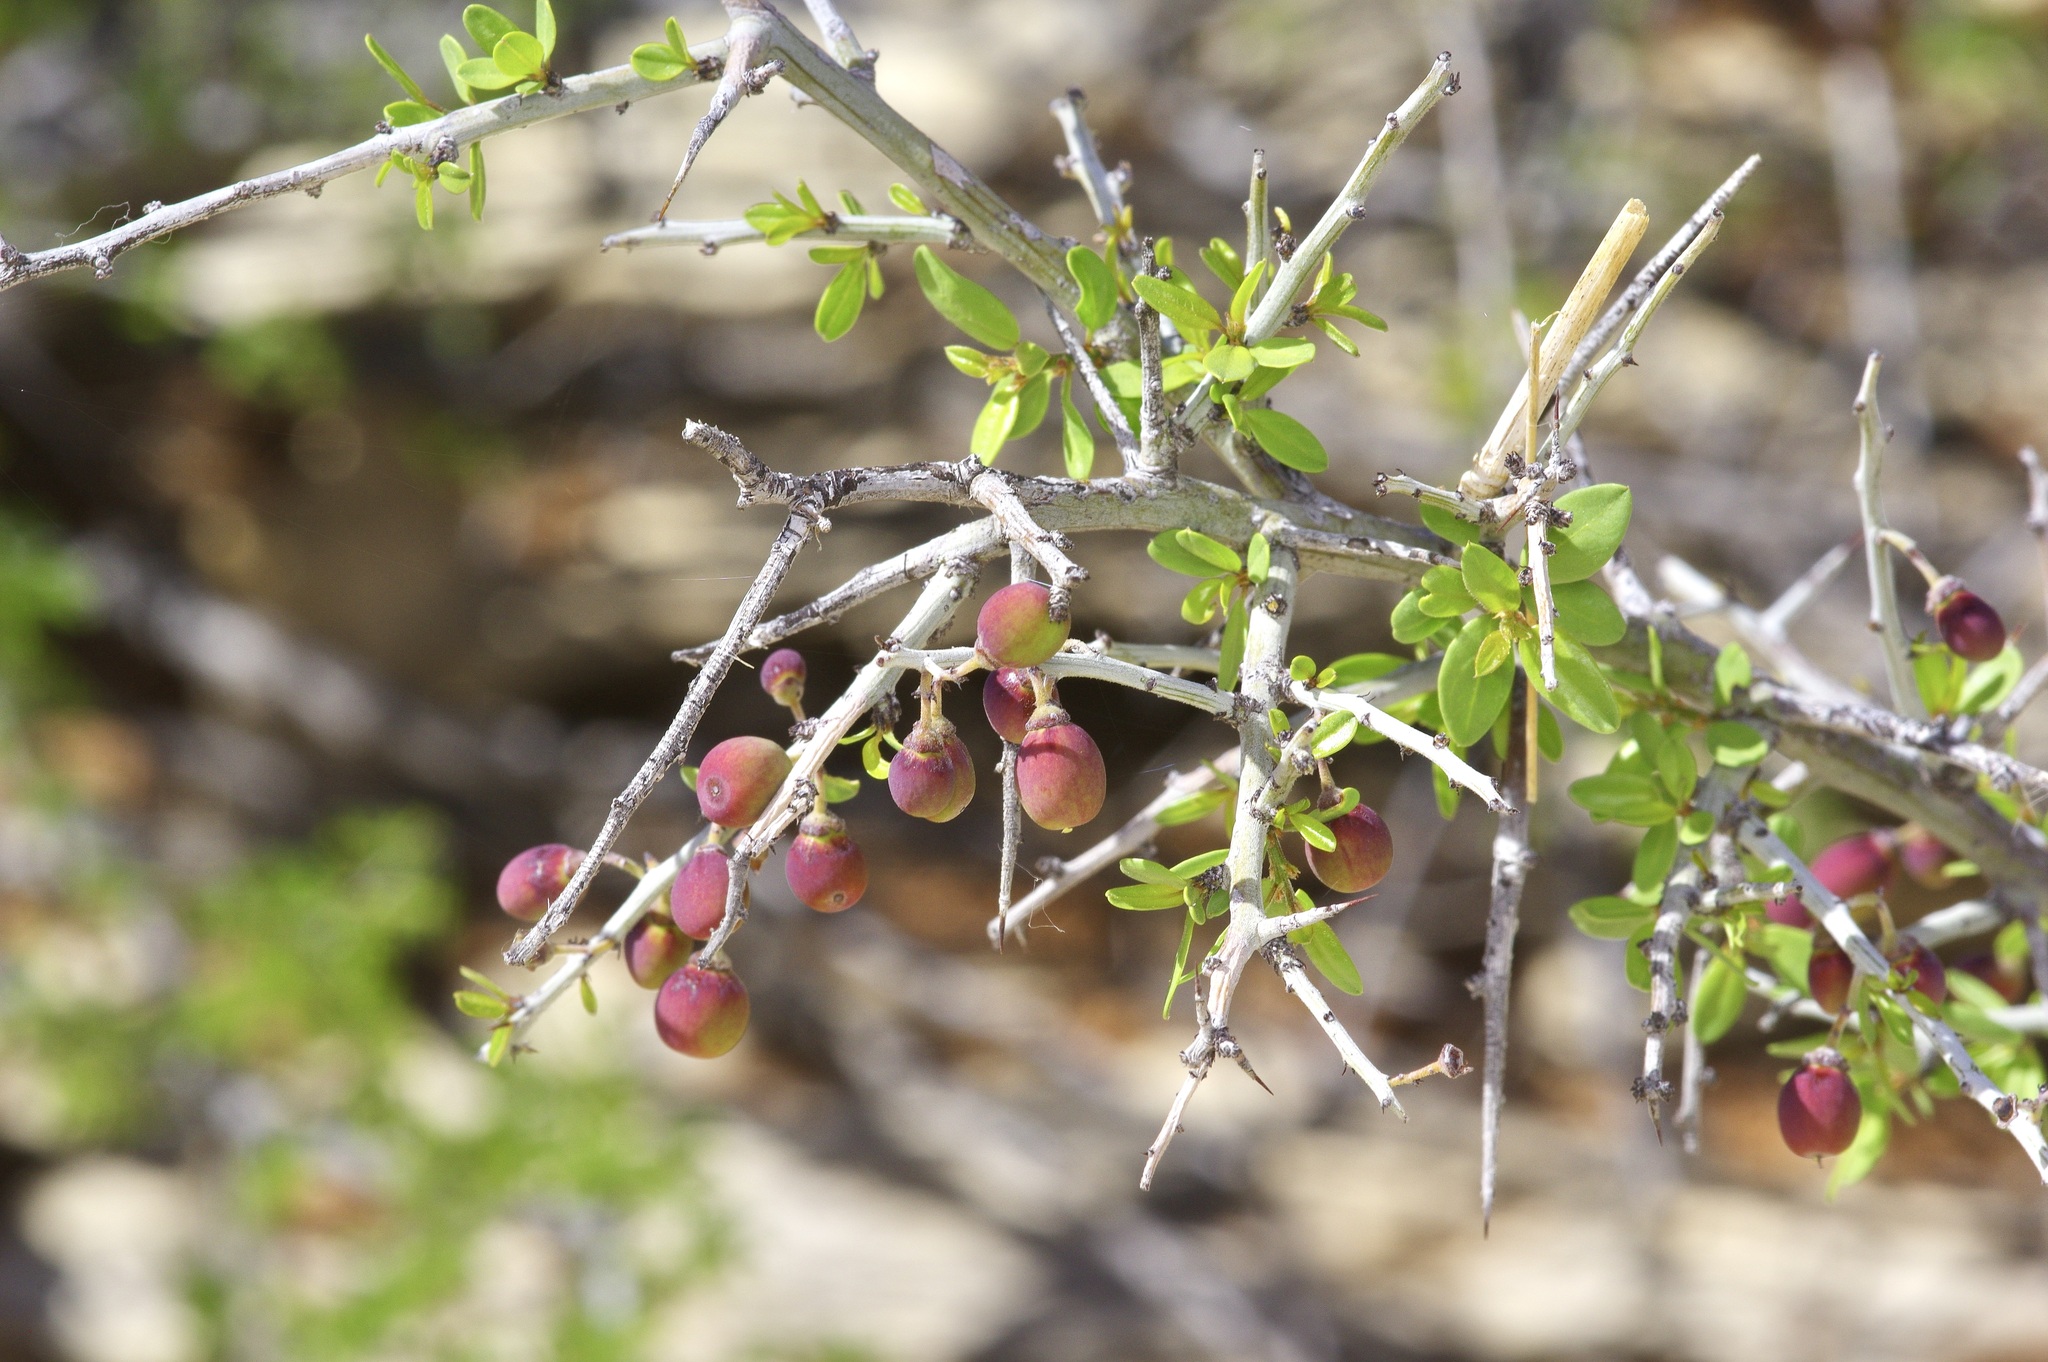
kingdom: Plantae
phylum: Tracheophyta
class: Magnoliopsida
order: Rosales
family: Rhamnaceae
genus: Sarcomphalus
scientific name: Sarcomphalus obtusifolius
